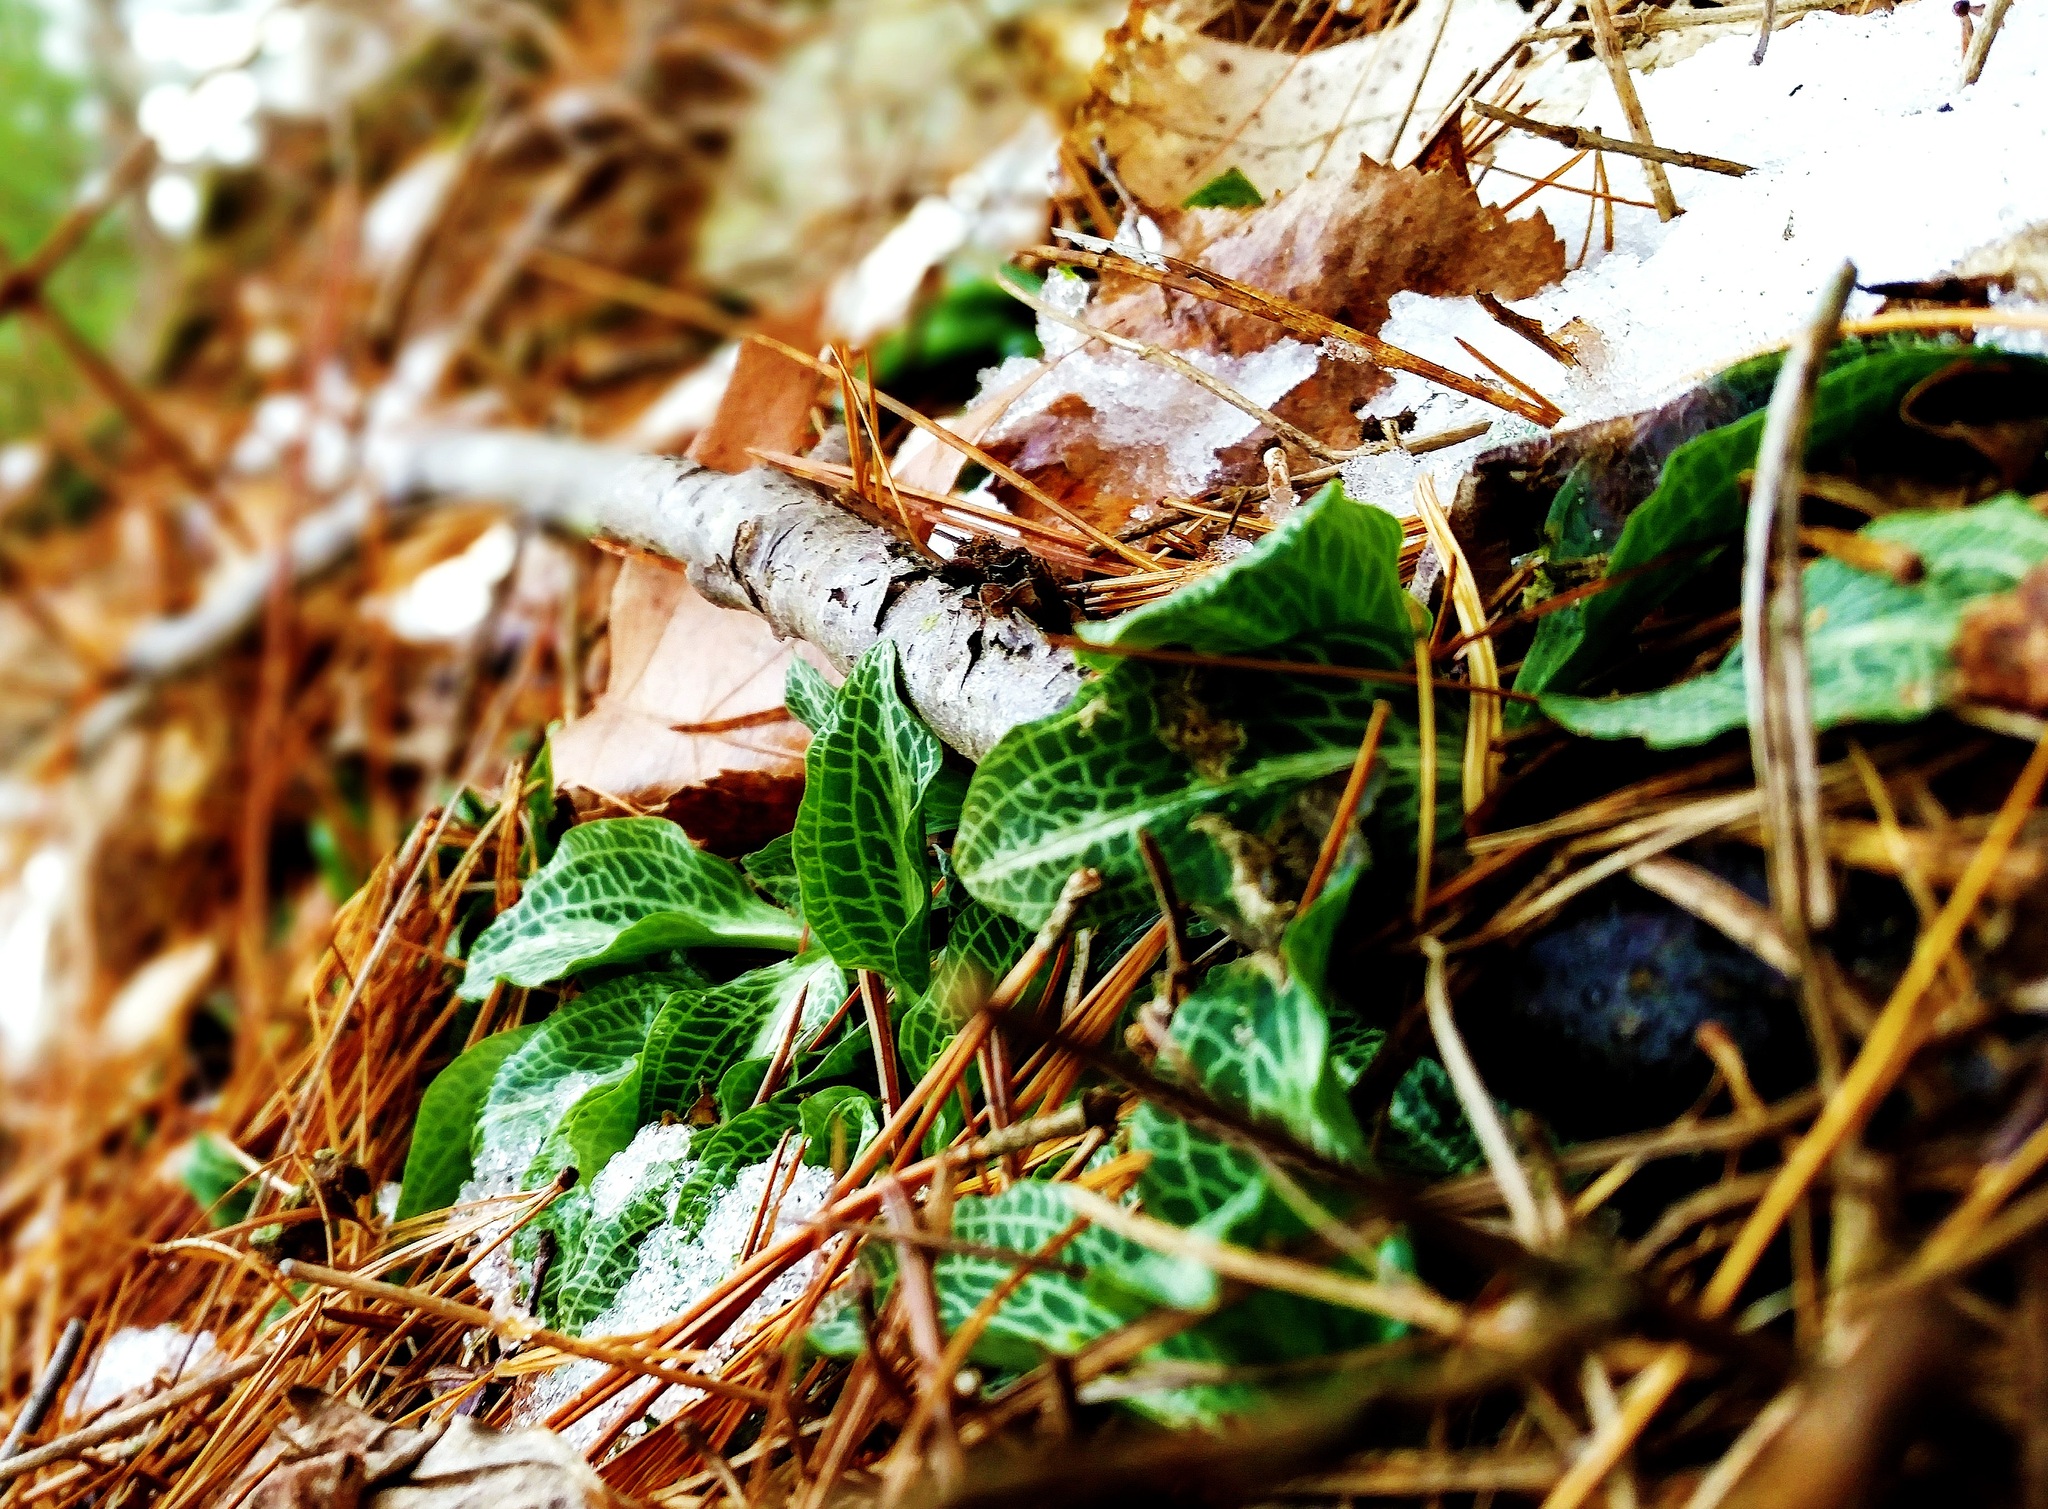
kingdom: Plantae
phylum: Tracheophyta
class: Liliopsida
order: Asparagales
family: Orchidaceae
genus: Goodyera
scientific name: Goodyera pubescens
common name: Downy rattlesnake-plantain
